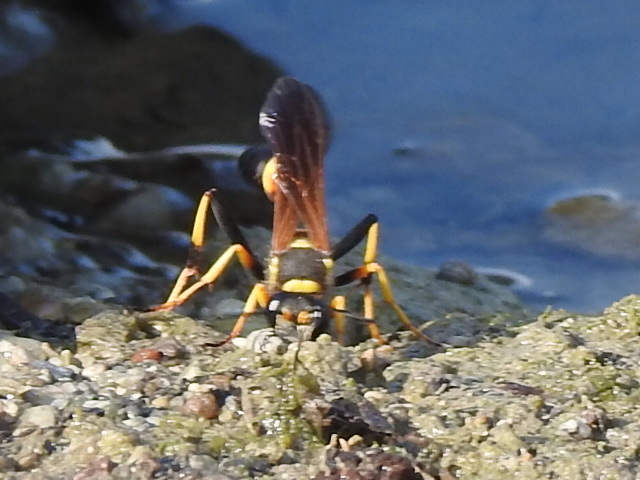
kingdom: Animalia
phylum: Arthropoda
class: Insecta
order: Hymenoptera
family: Sphecidae
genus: Sceliphron
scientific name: Sceliphron caementarium
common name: Mud dauber
